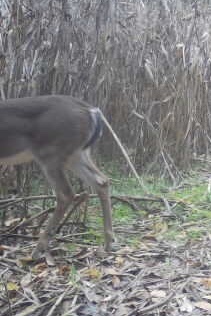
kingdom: Animalia
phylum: Chordata
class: Mammalia
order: Artiodactyla
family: Cervidae
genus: Odocoileus
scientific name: Odocoileus virginianus
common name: White-tailed deer
